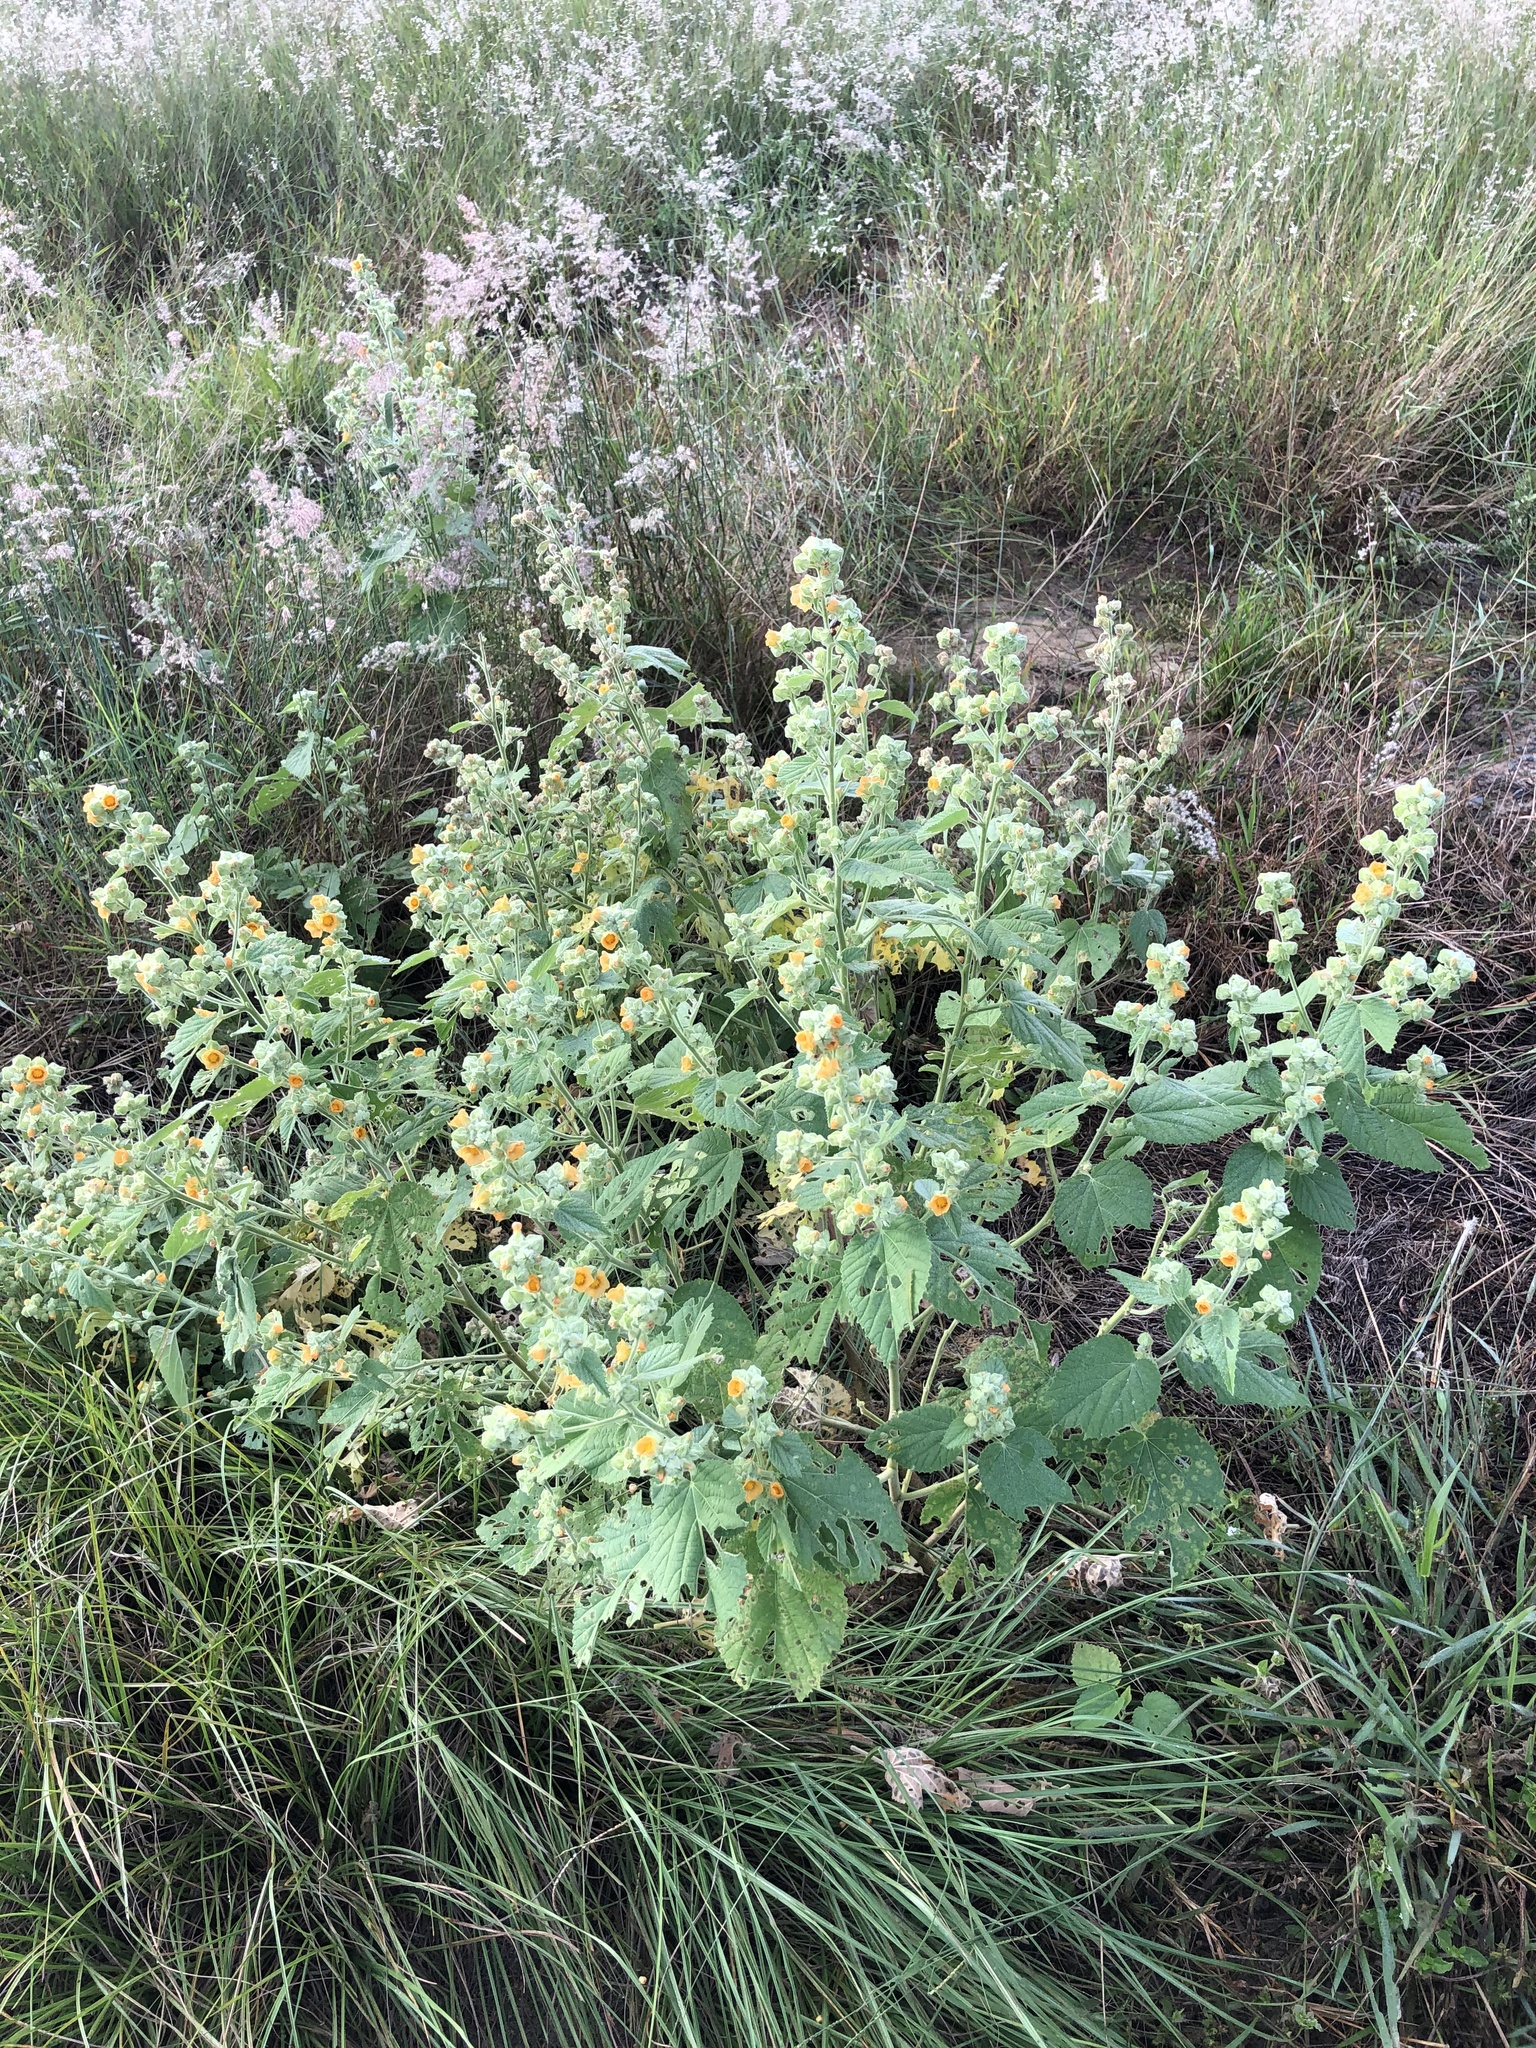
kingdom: Plantae
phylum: Tracheophyta
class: Magnoliopsida
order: Malvales
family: Malvaceae
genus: Sida
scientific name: Sida cordifolia
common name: Ilima
